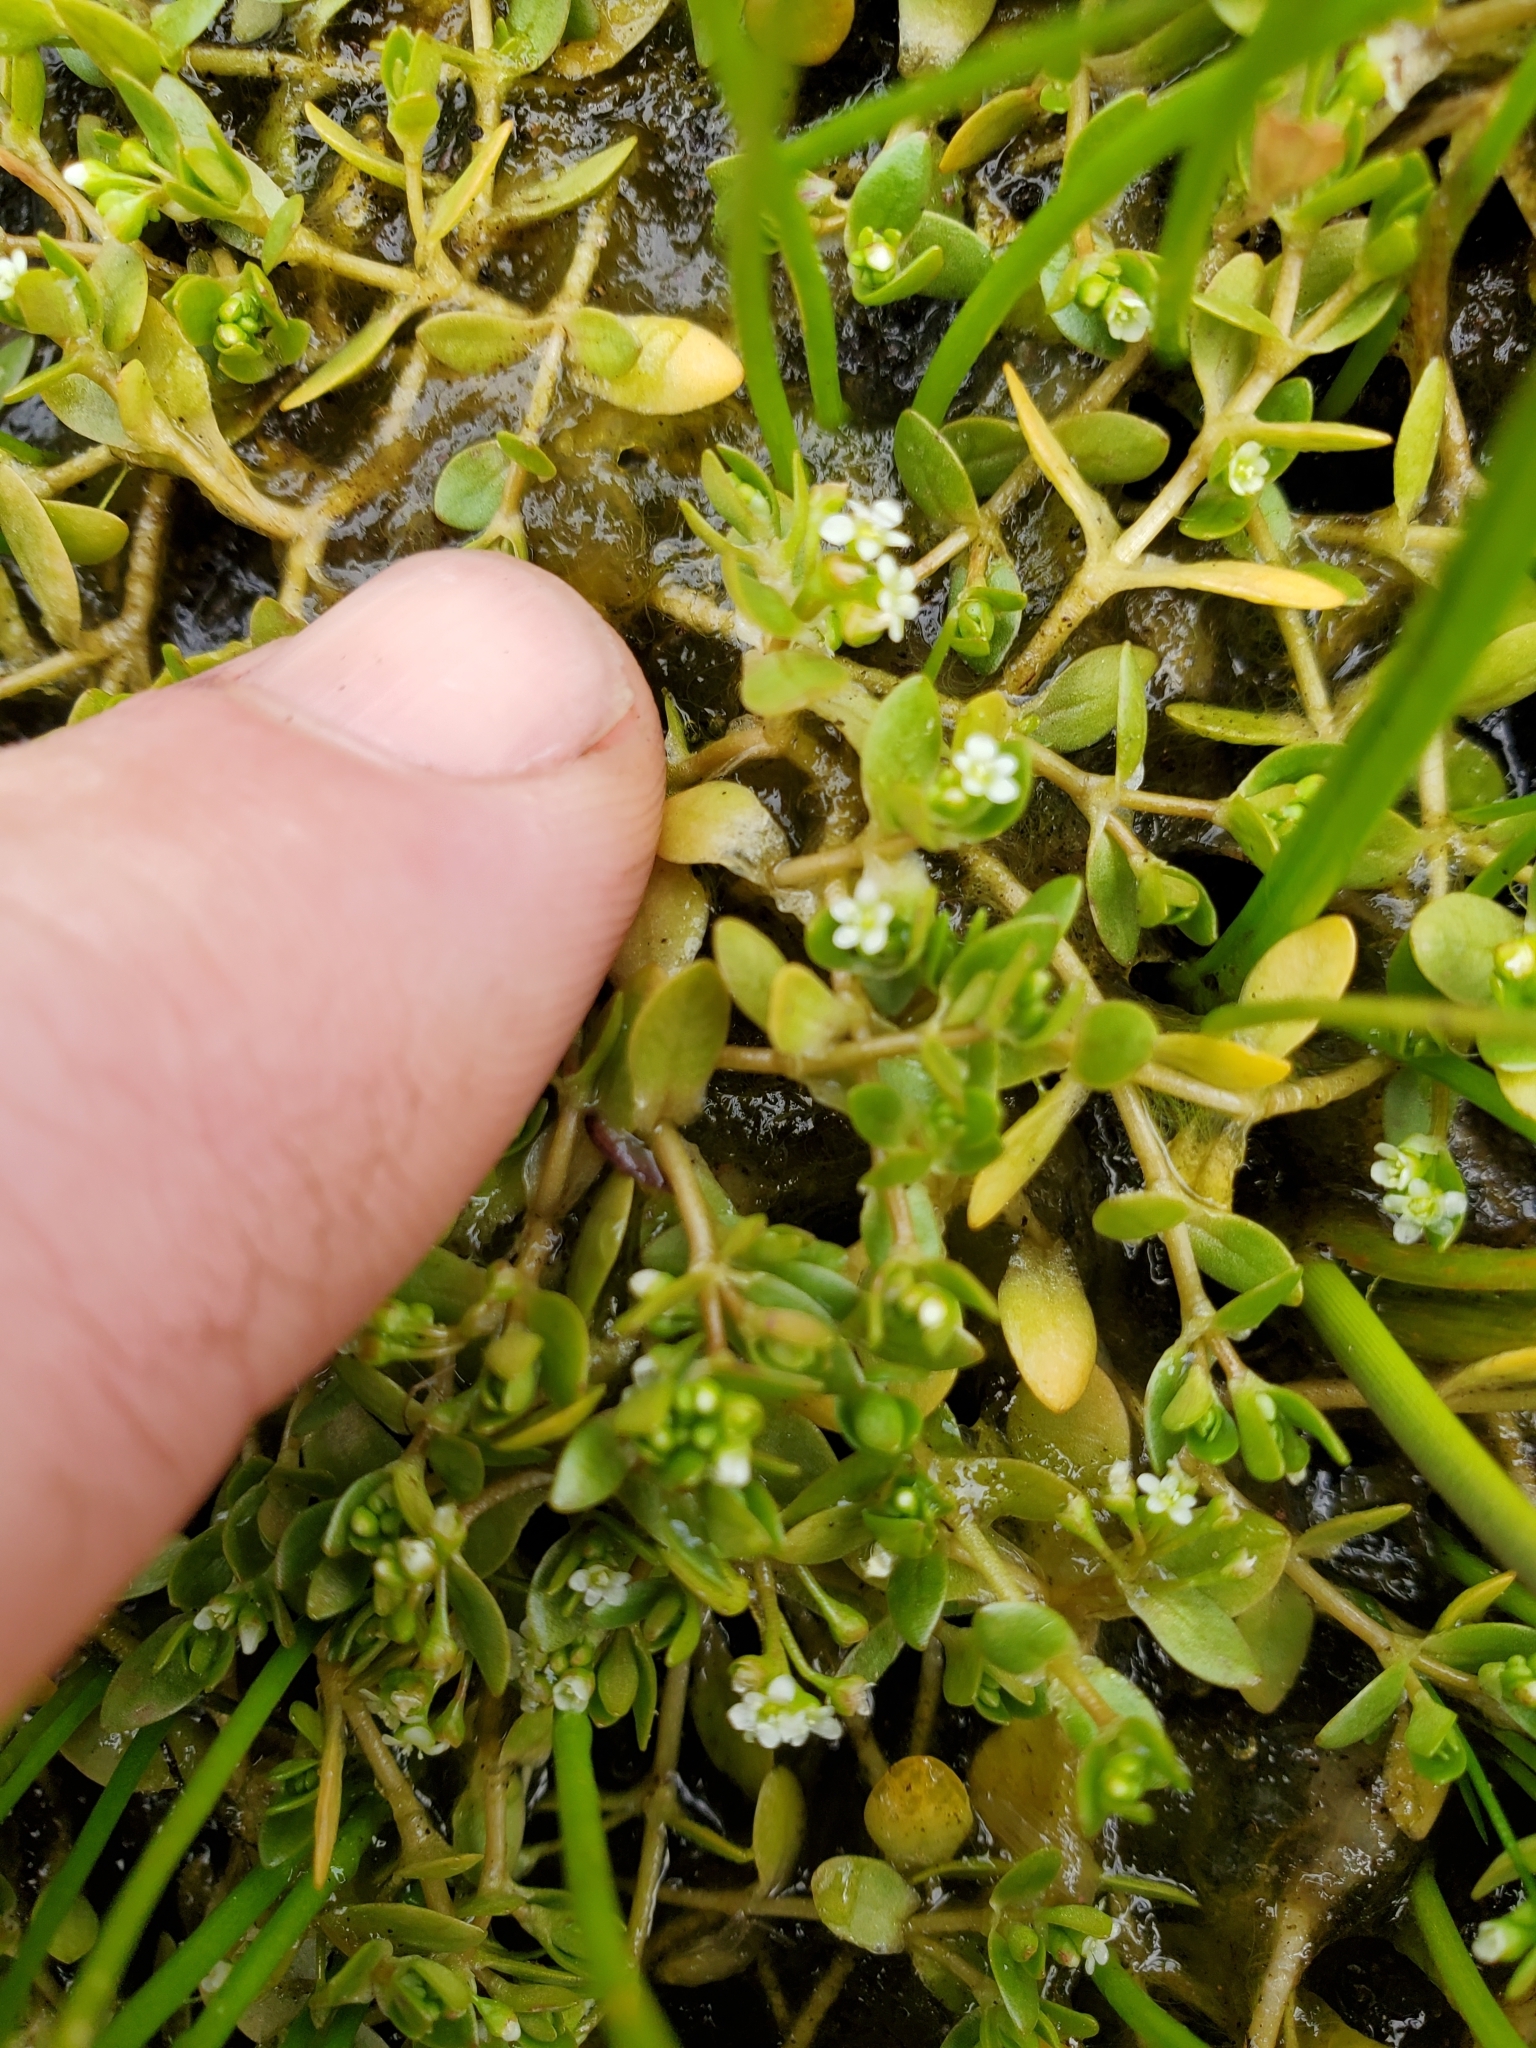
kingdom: Plantae
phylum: Tracheophyta
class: Magnoliopsida
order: Caryophyllales
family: Montiaceae
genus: Montia
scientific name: Montia fontana
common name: Blinks
